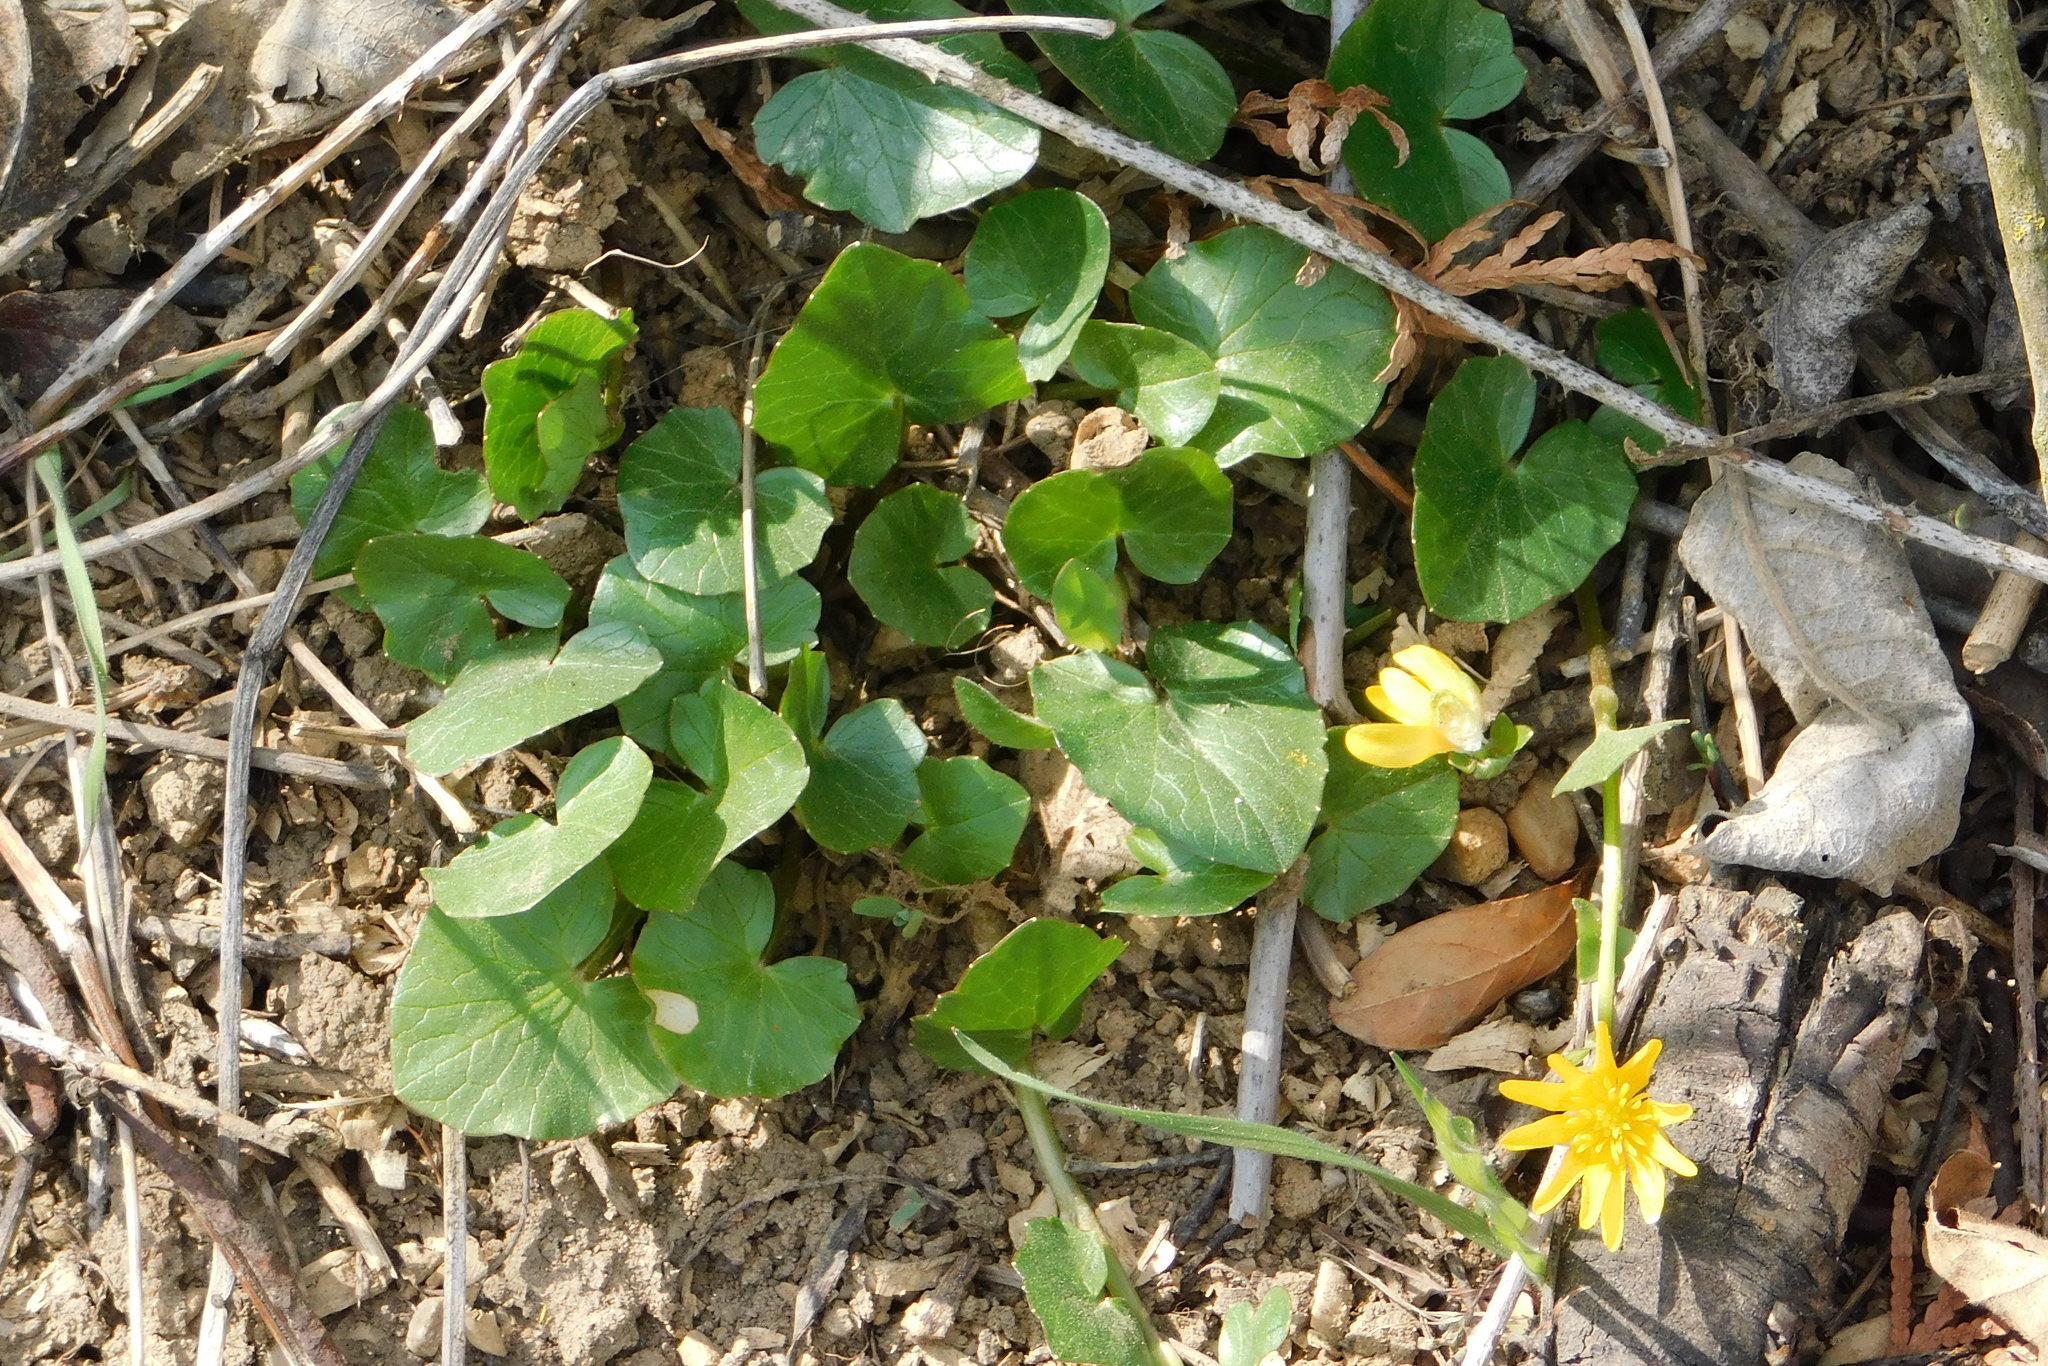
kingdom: Plantae
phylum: Tracheophyta
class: Magnoliopsida
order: Ranunculales
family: Ranunculaceae
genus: Ficaria
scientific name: Ficaria verna
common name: Lesser celandine
